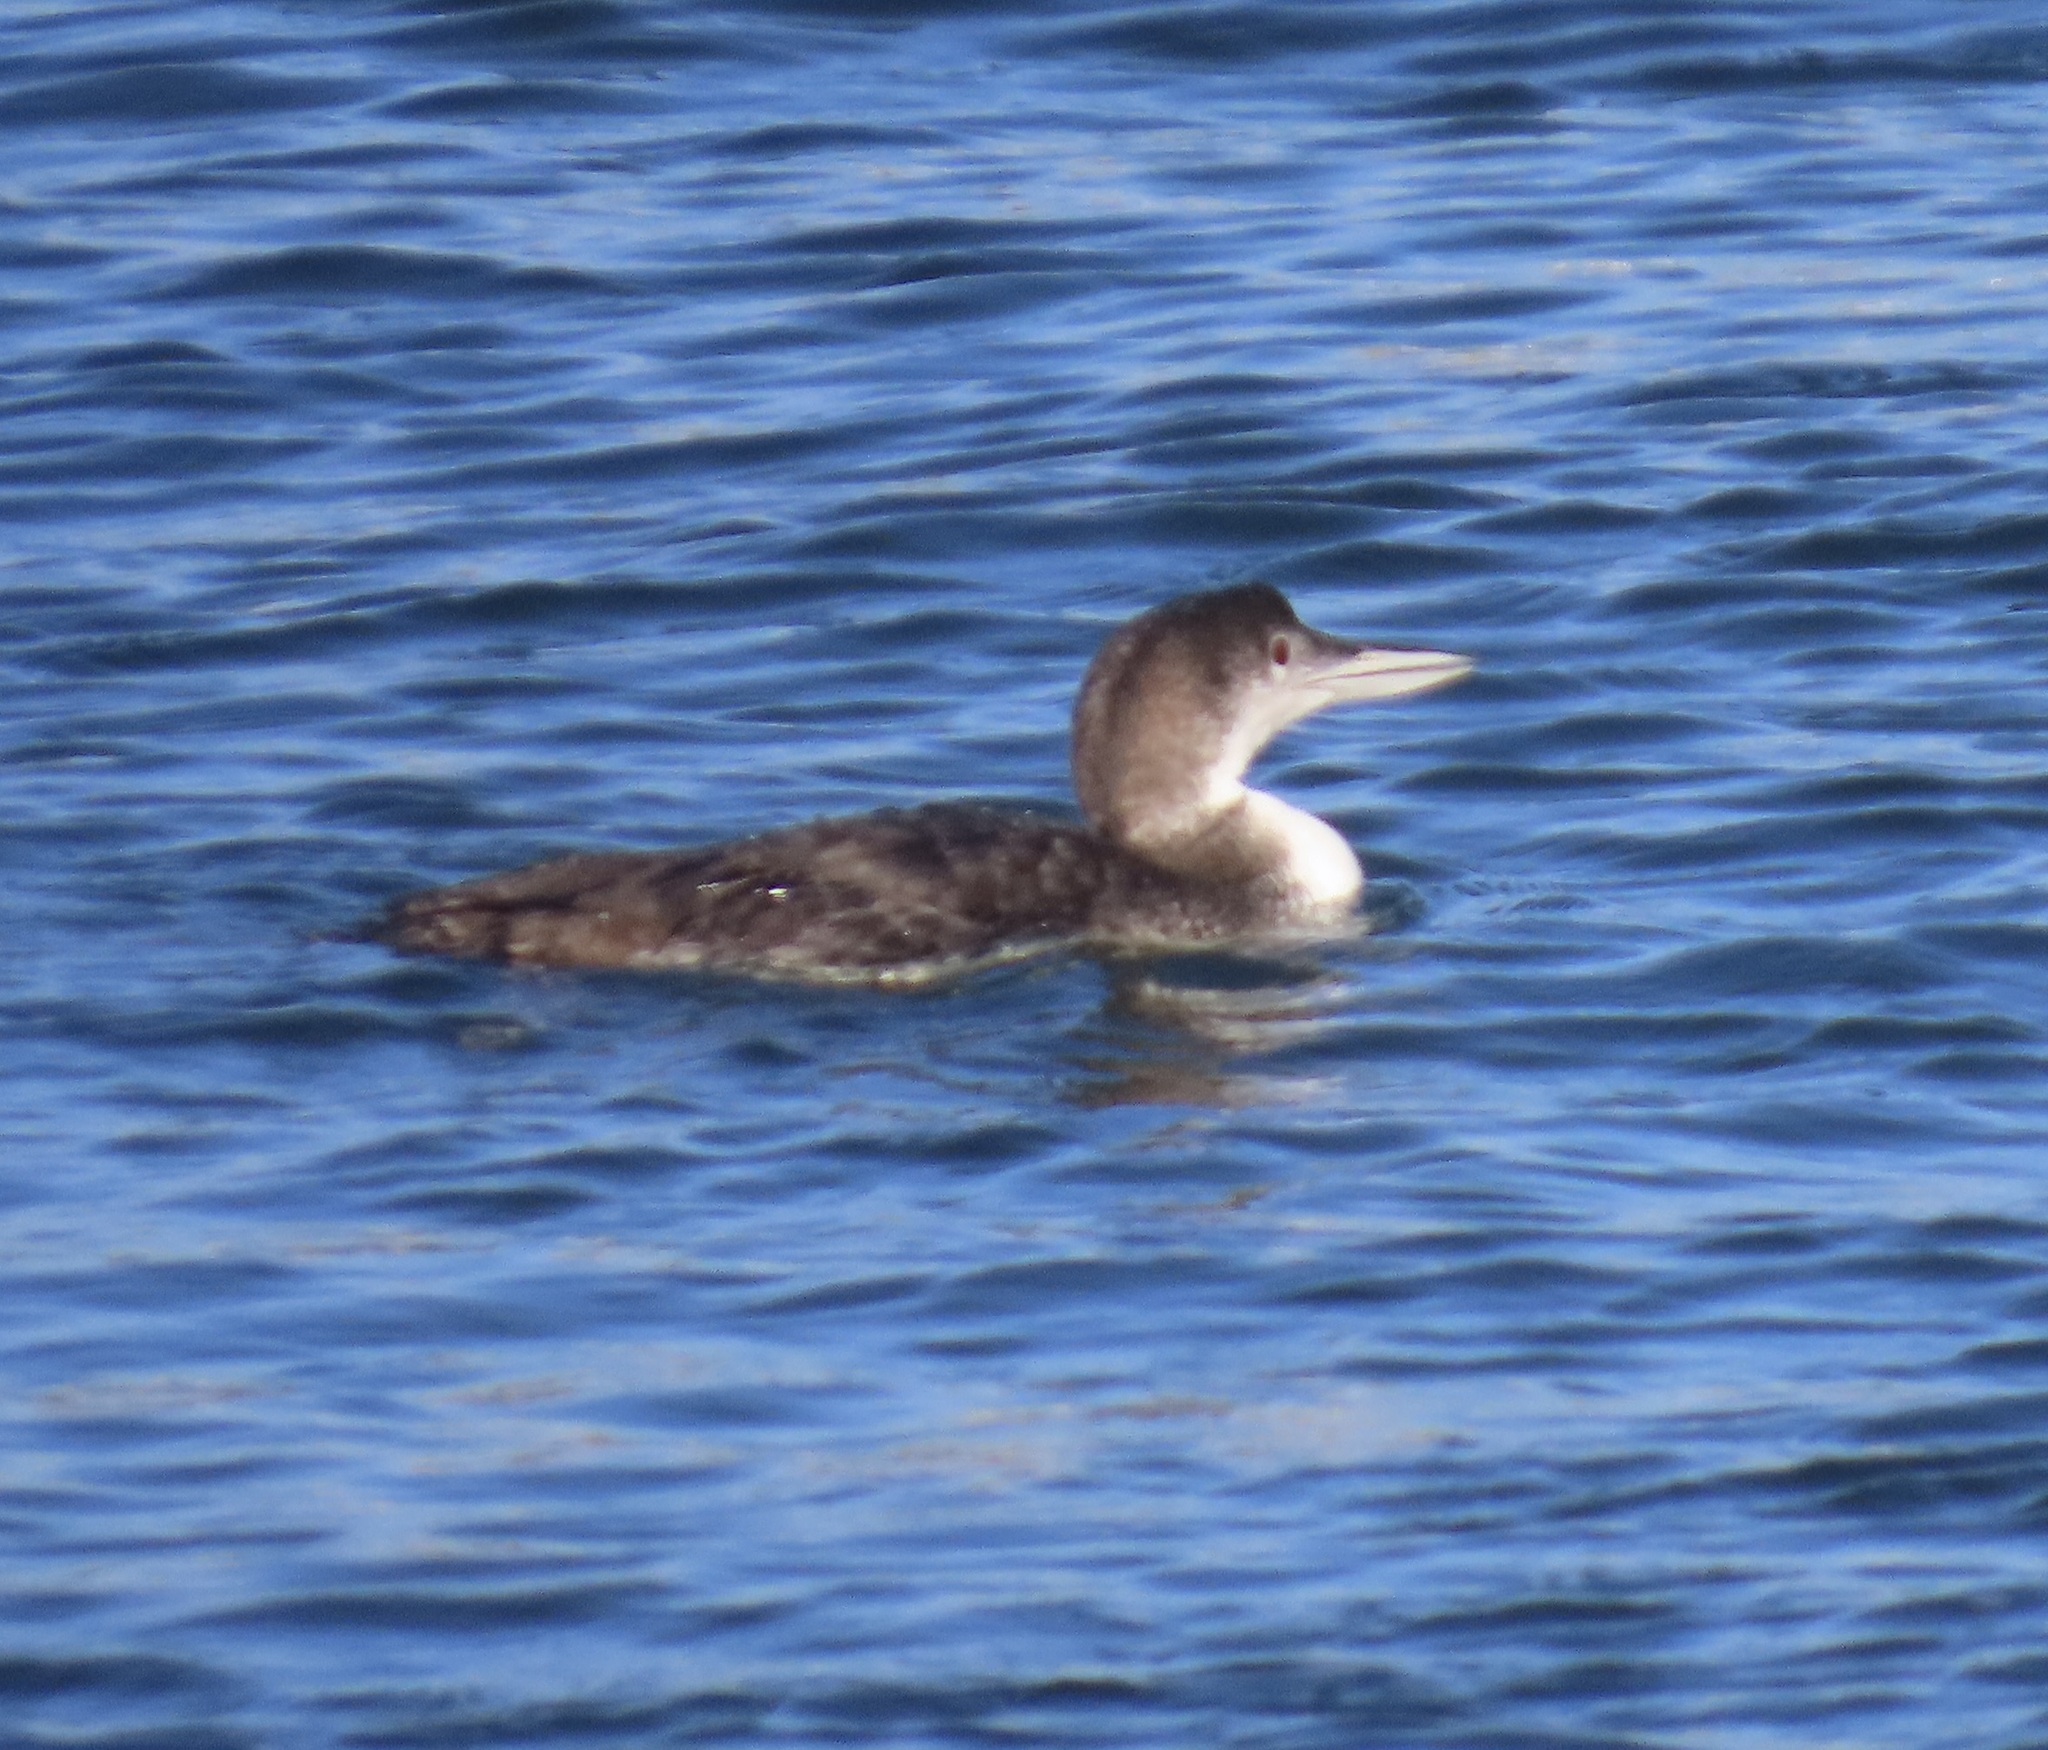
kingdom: Animalia
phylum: Chordata
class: Aves
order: Gaviiformes
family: Gaviidae
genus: Gavia
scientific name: Gavia immer
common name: Common loon
